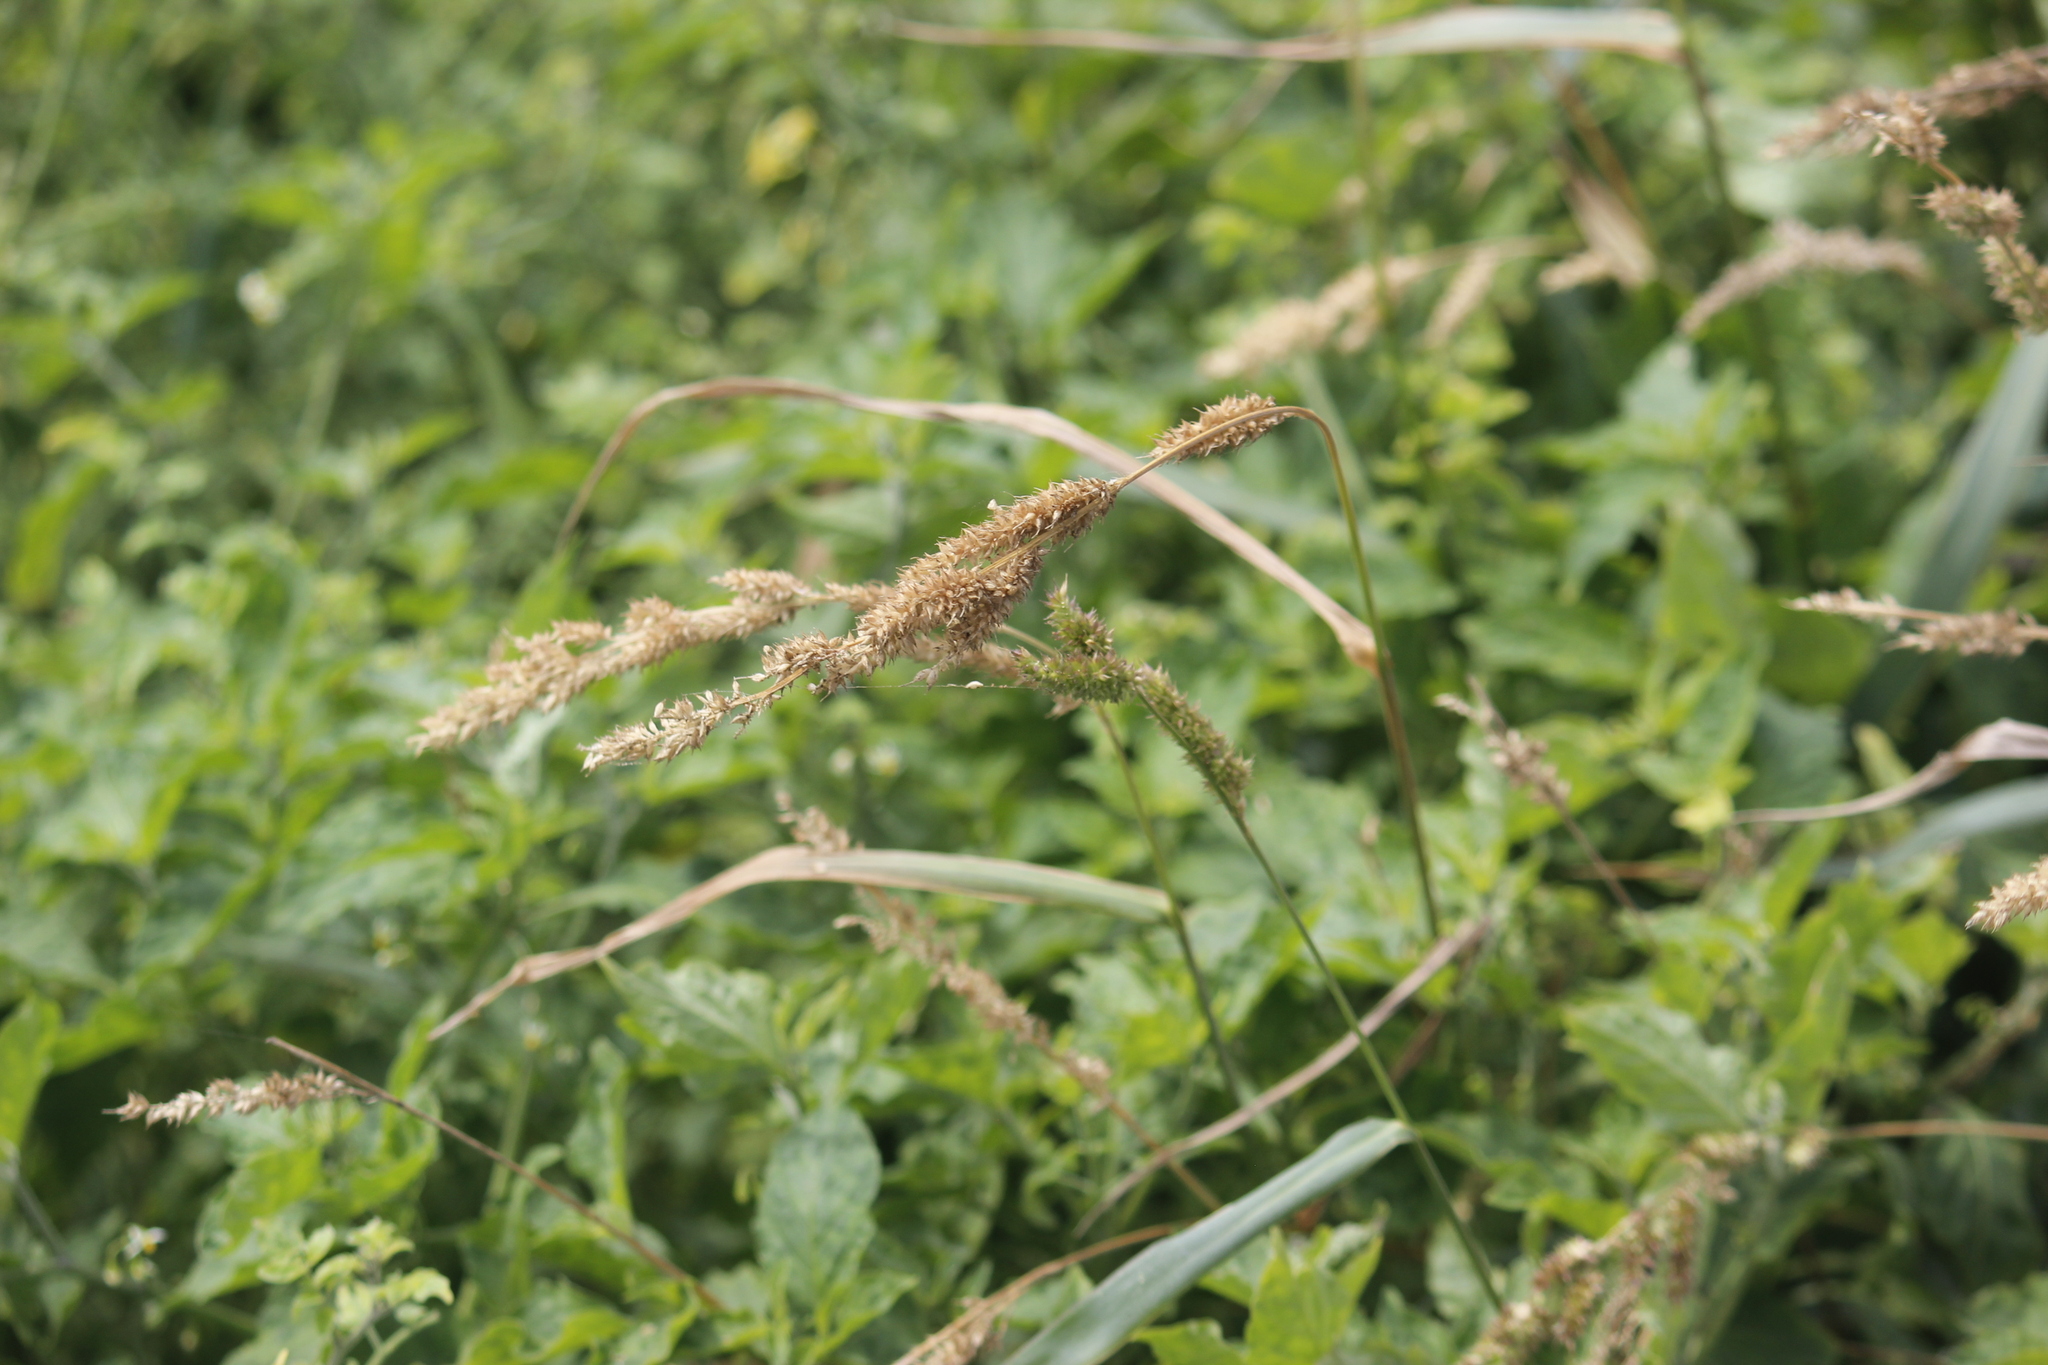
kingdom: Plantae
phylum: Tracheophyta
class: Liliopsida
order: Poales
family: Poaceae
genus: Echinochloa
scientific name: Echinochloa crus-galli
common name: Cockspur
